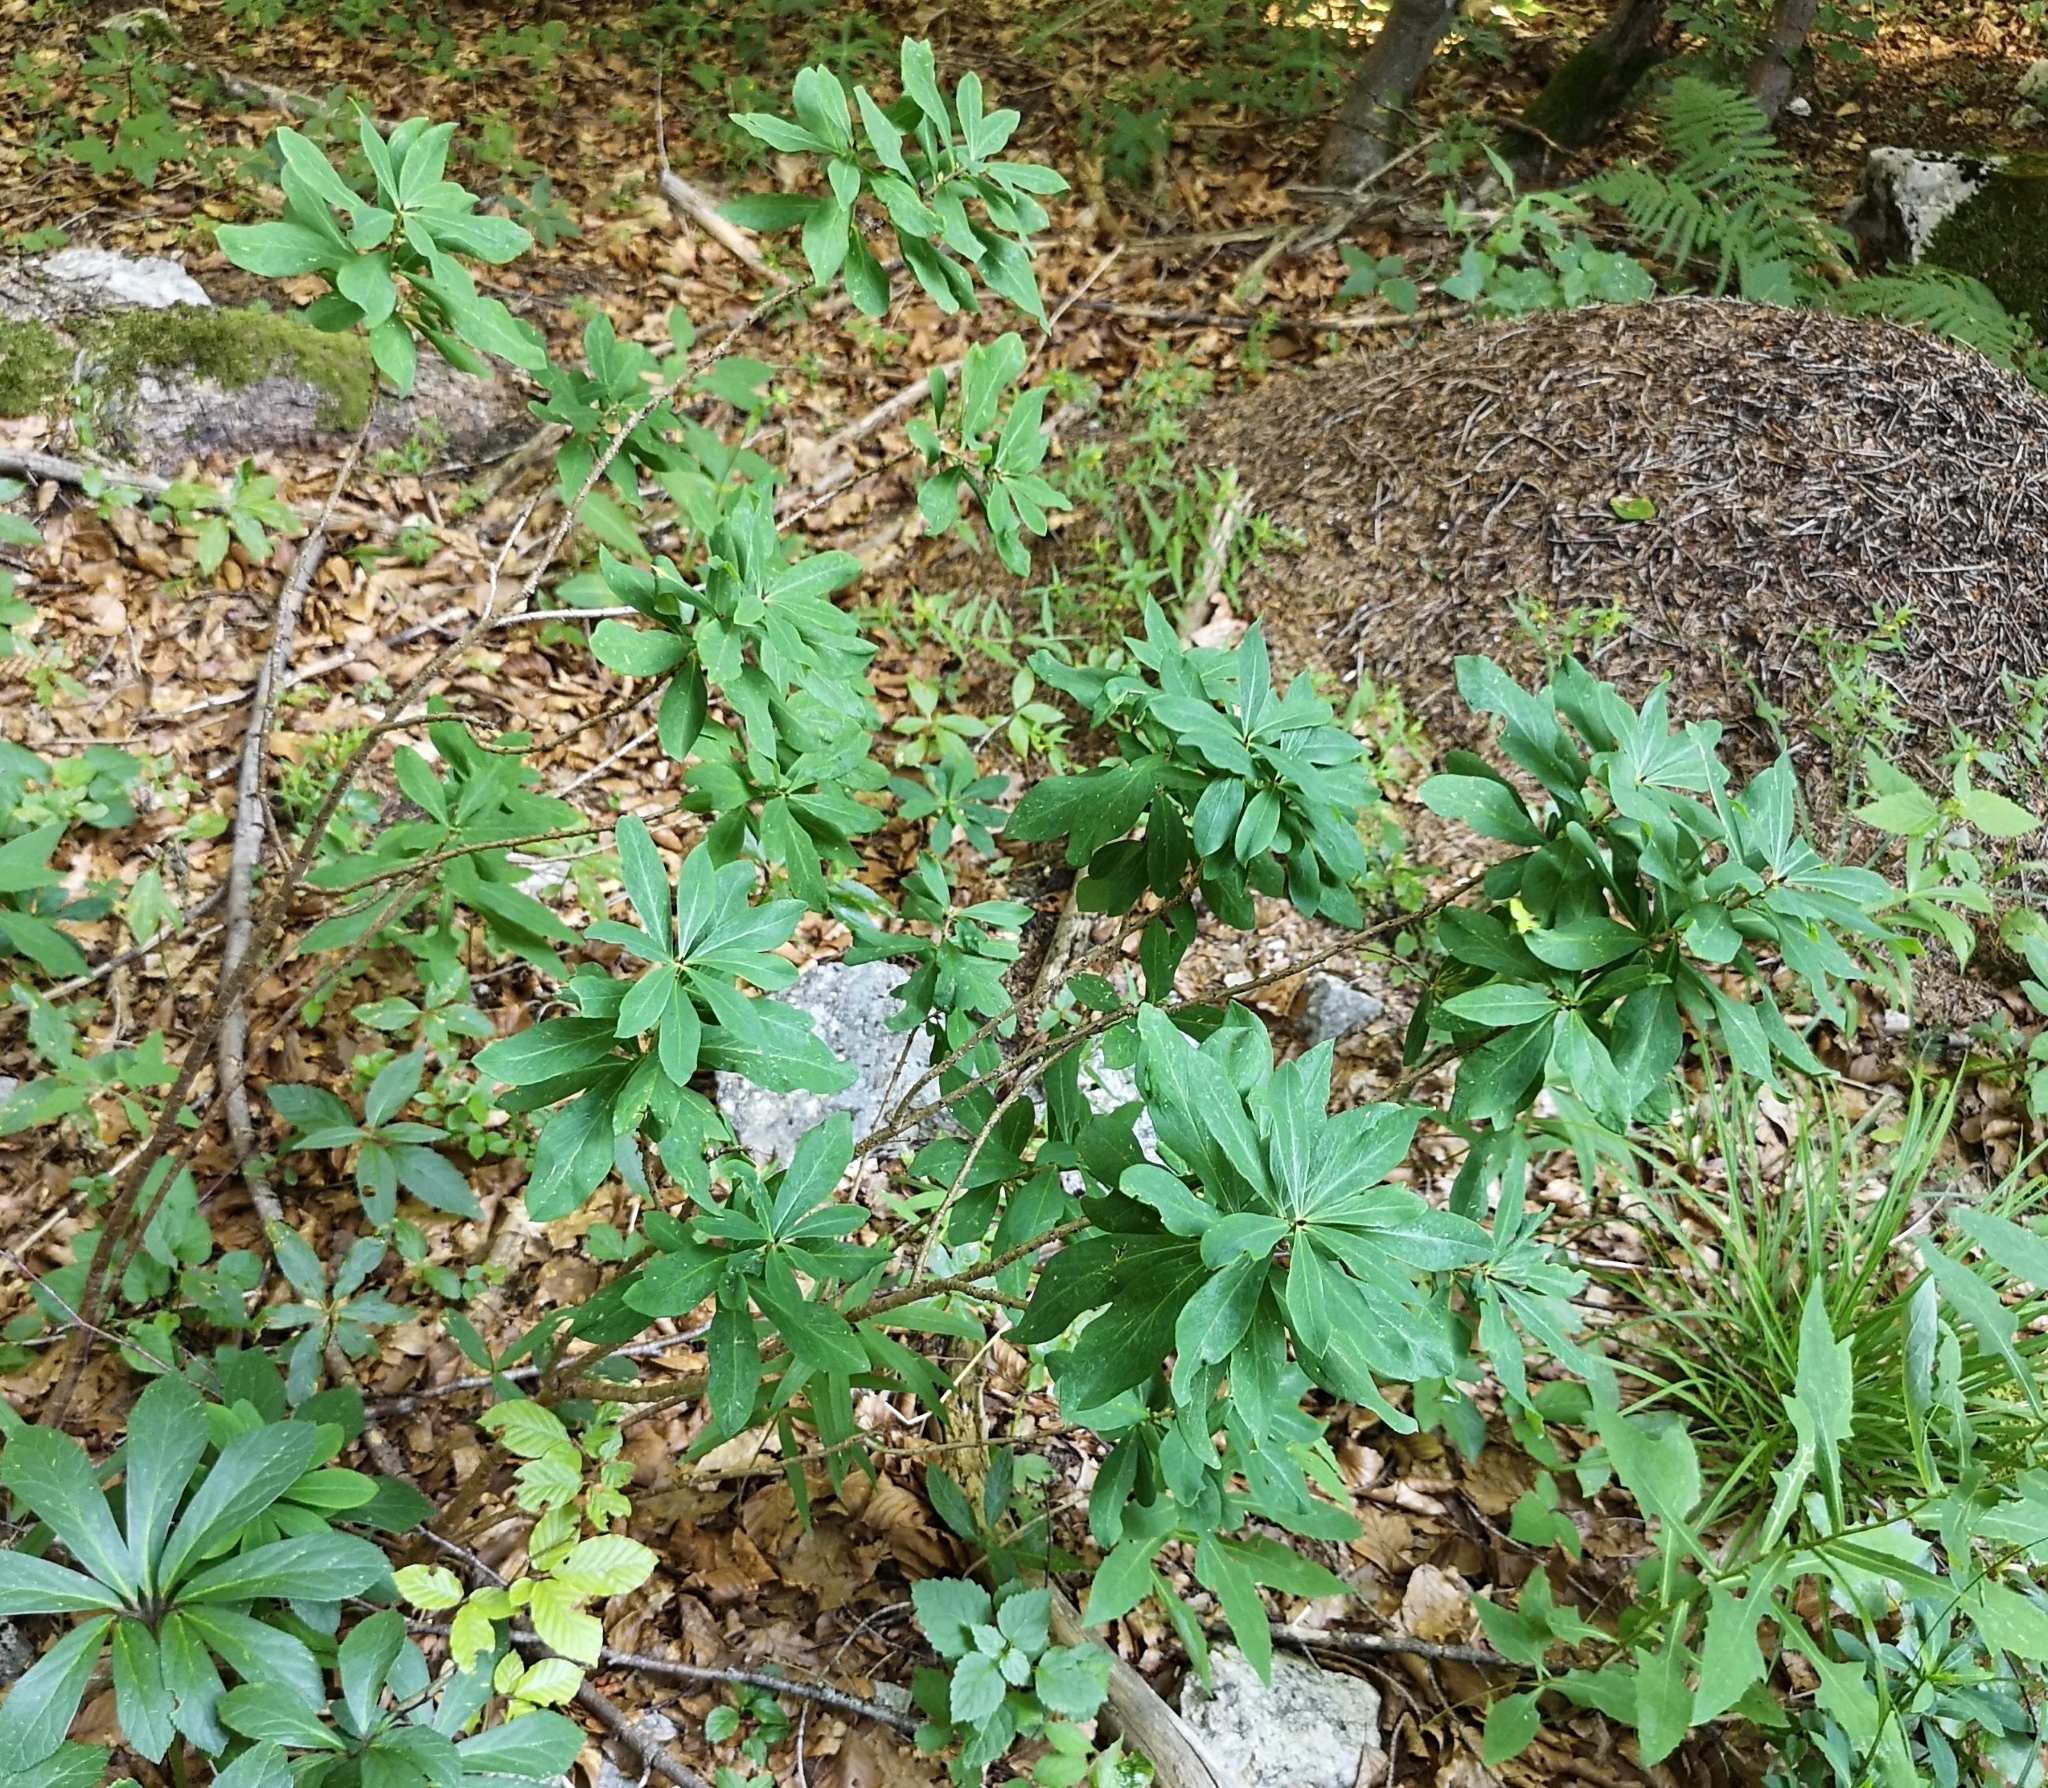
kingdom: Plantae
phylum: Tracheophyta
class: Magnoliopsida
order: Malvales
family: Thymelaeaceae
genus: Daphne
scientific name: Daphne mezereum
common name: Mezereon
